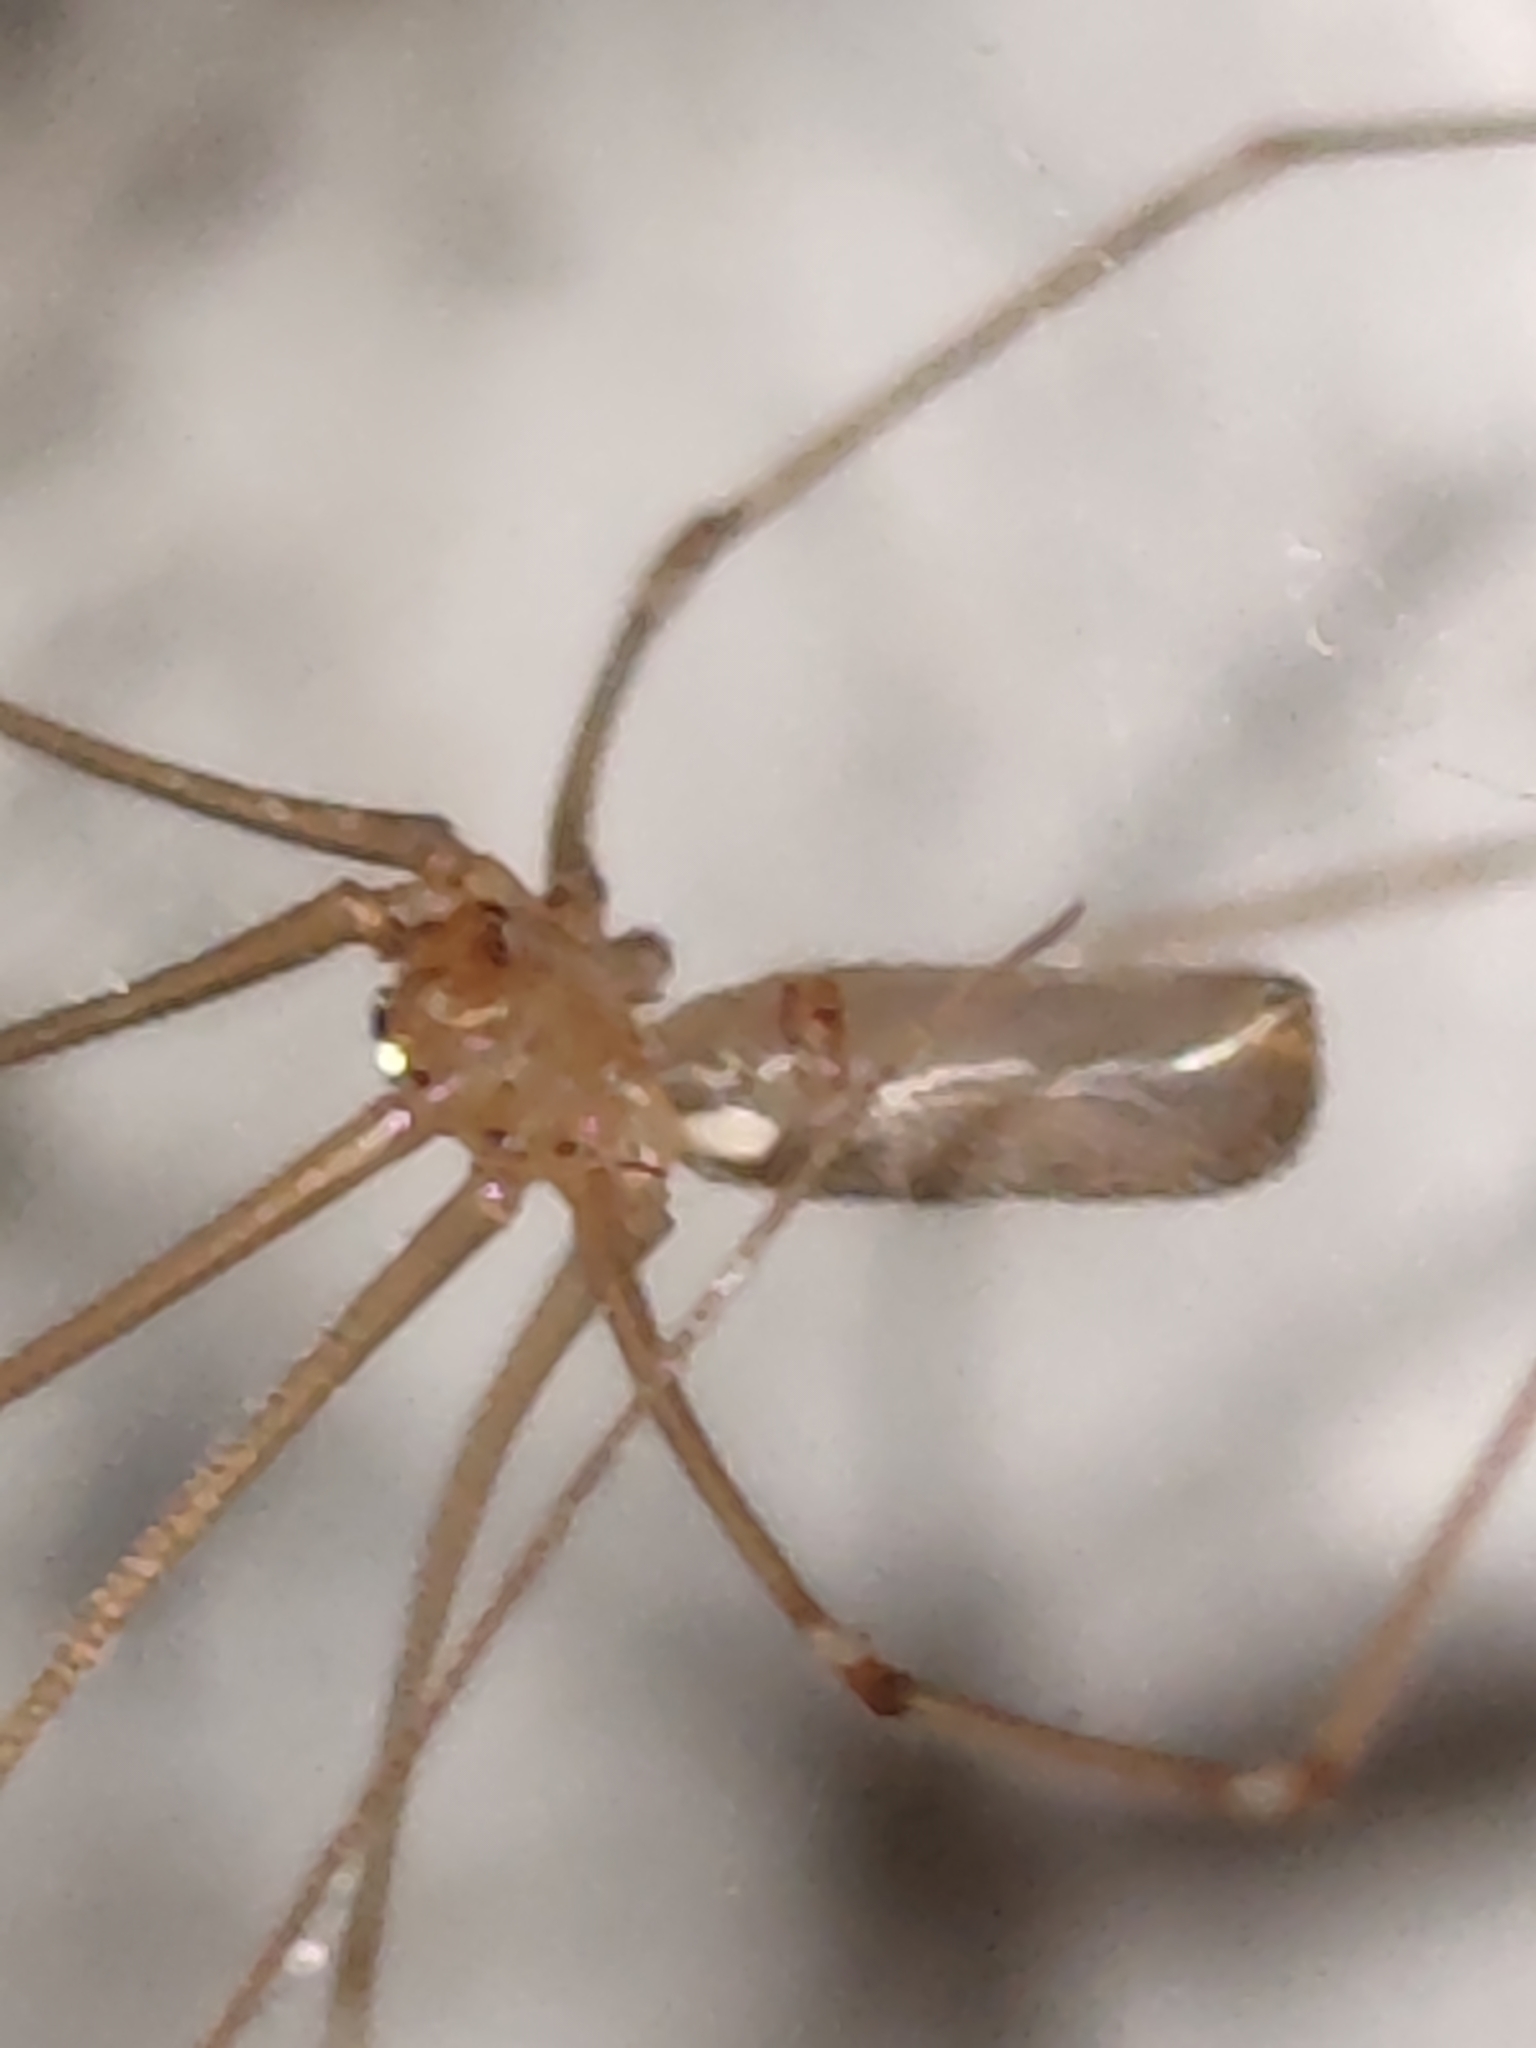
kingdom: Animalia
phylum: Arthropoda
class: Arachnida
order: Araneae
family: Pholcidae
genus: Pholcus
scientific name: Pholcus phalangioides
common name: Longbodied cellar spider
